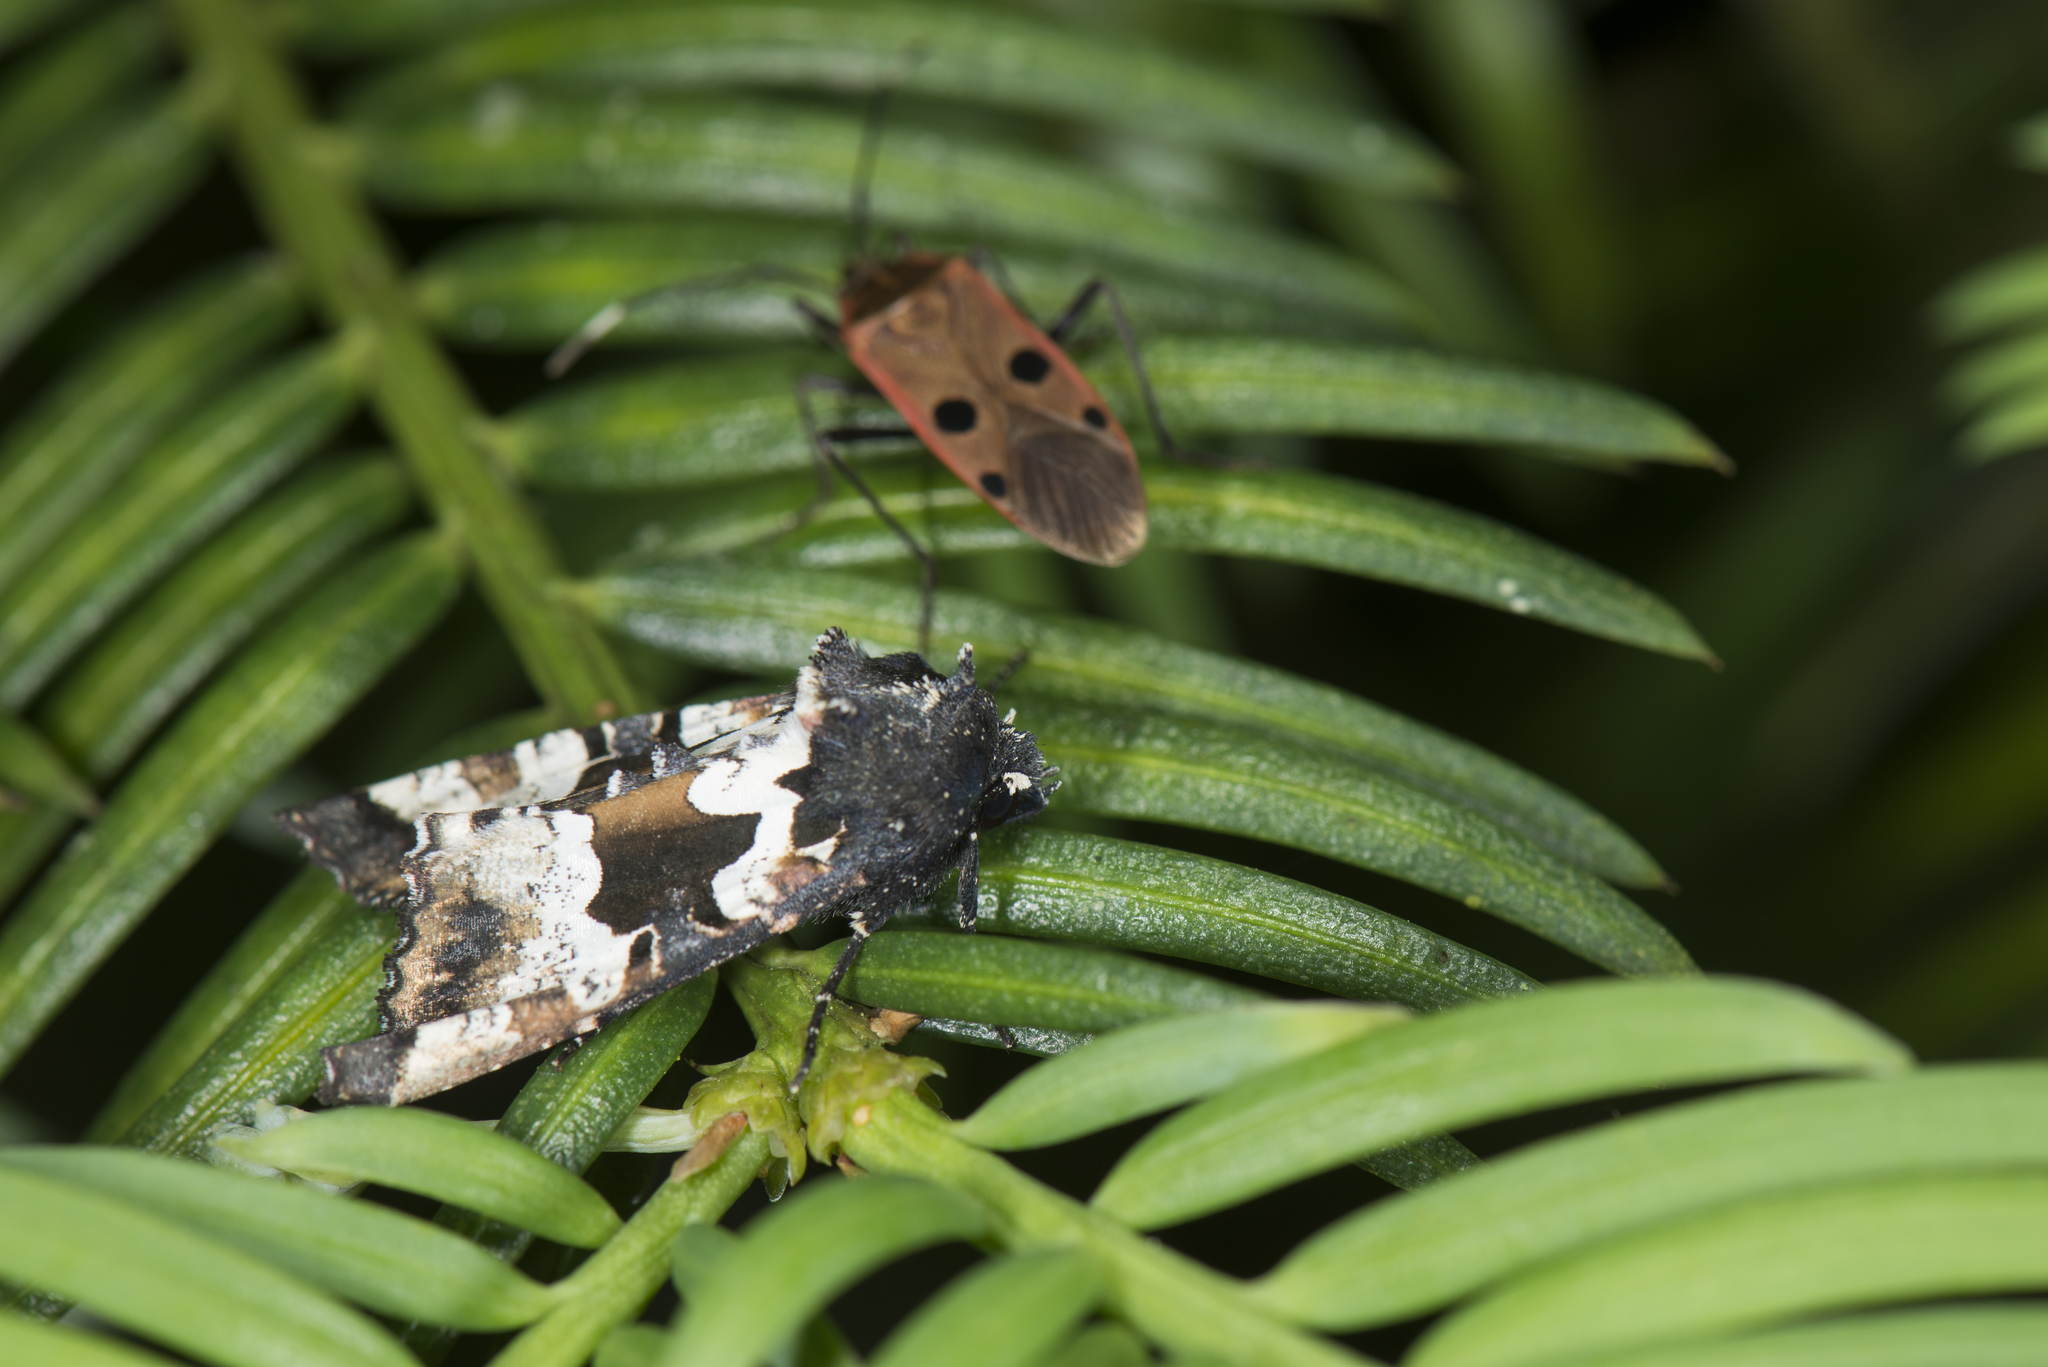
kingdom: Animalia
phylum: Arthropoda
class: Insecta
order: Lepidoptera
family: Noctuidae
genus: Phlogophora
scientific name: Phlogophora albovittata
